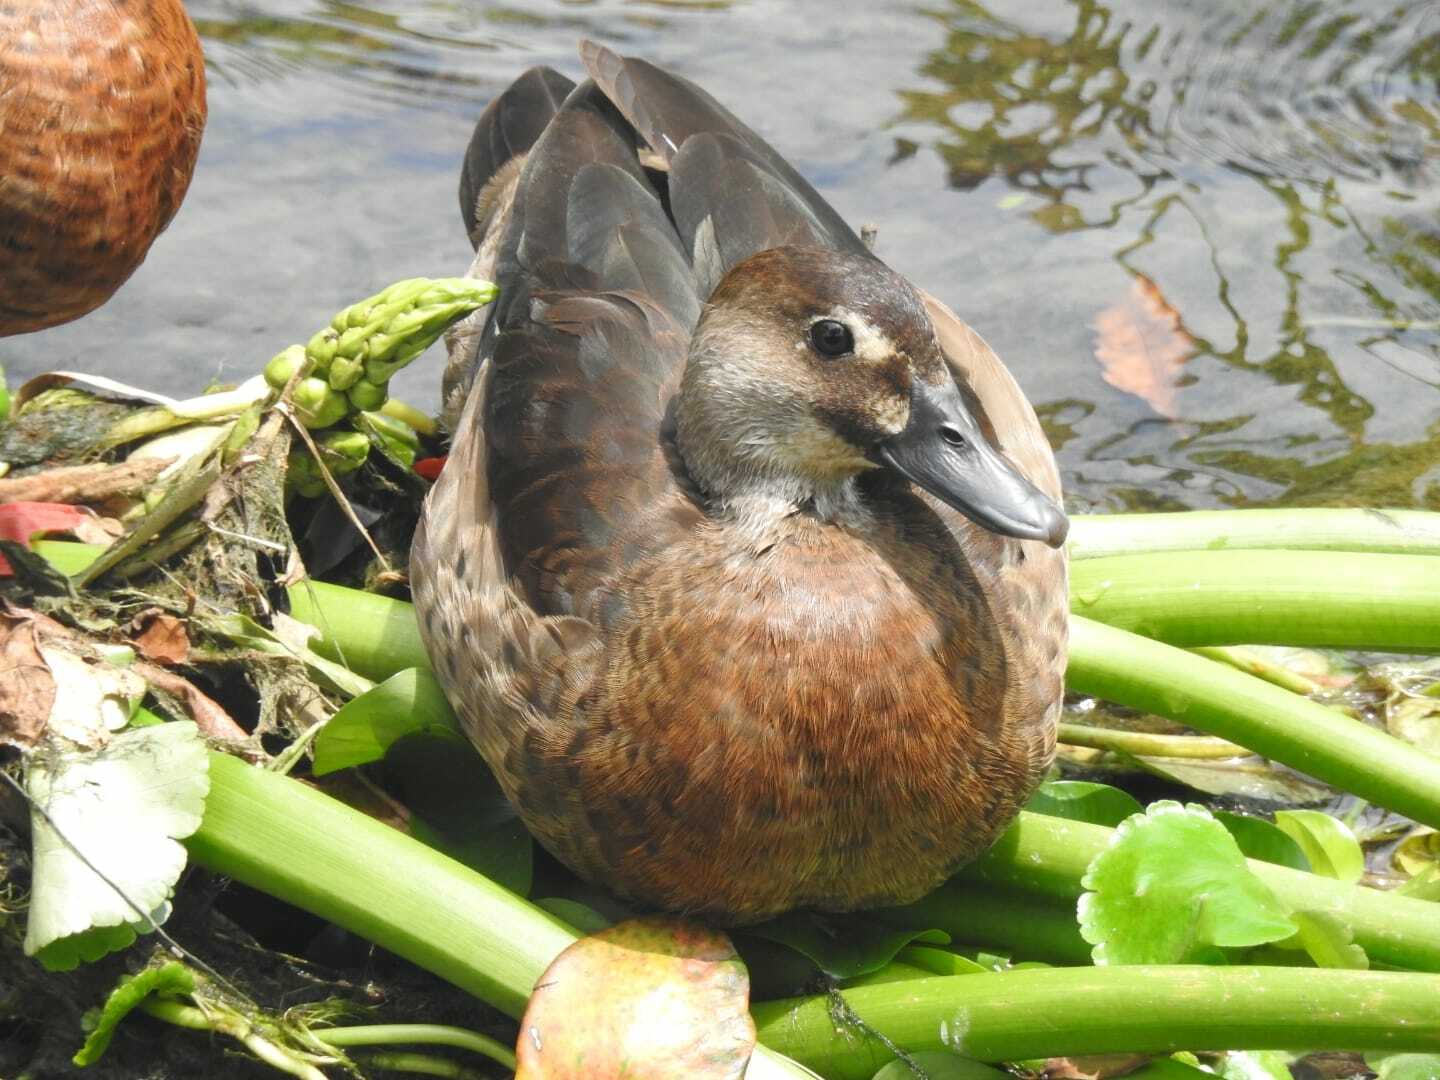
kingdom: Animalia
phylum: Chordata
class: Aves
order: Anseriformes
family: Anatidae
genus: Amazonetta
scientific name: Amazonetta brasiliensis
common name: Brazilian teal
